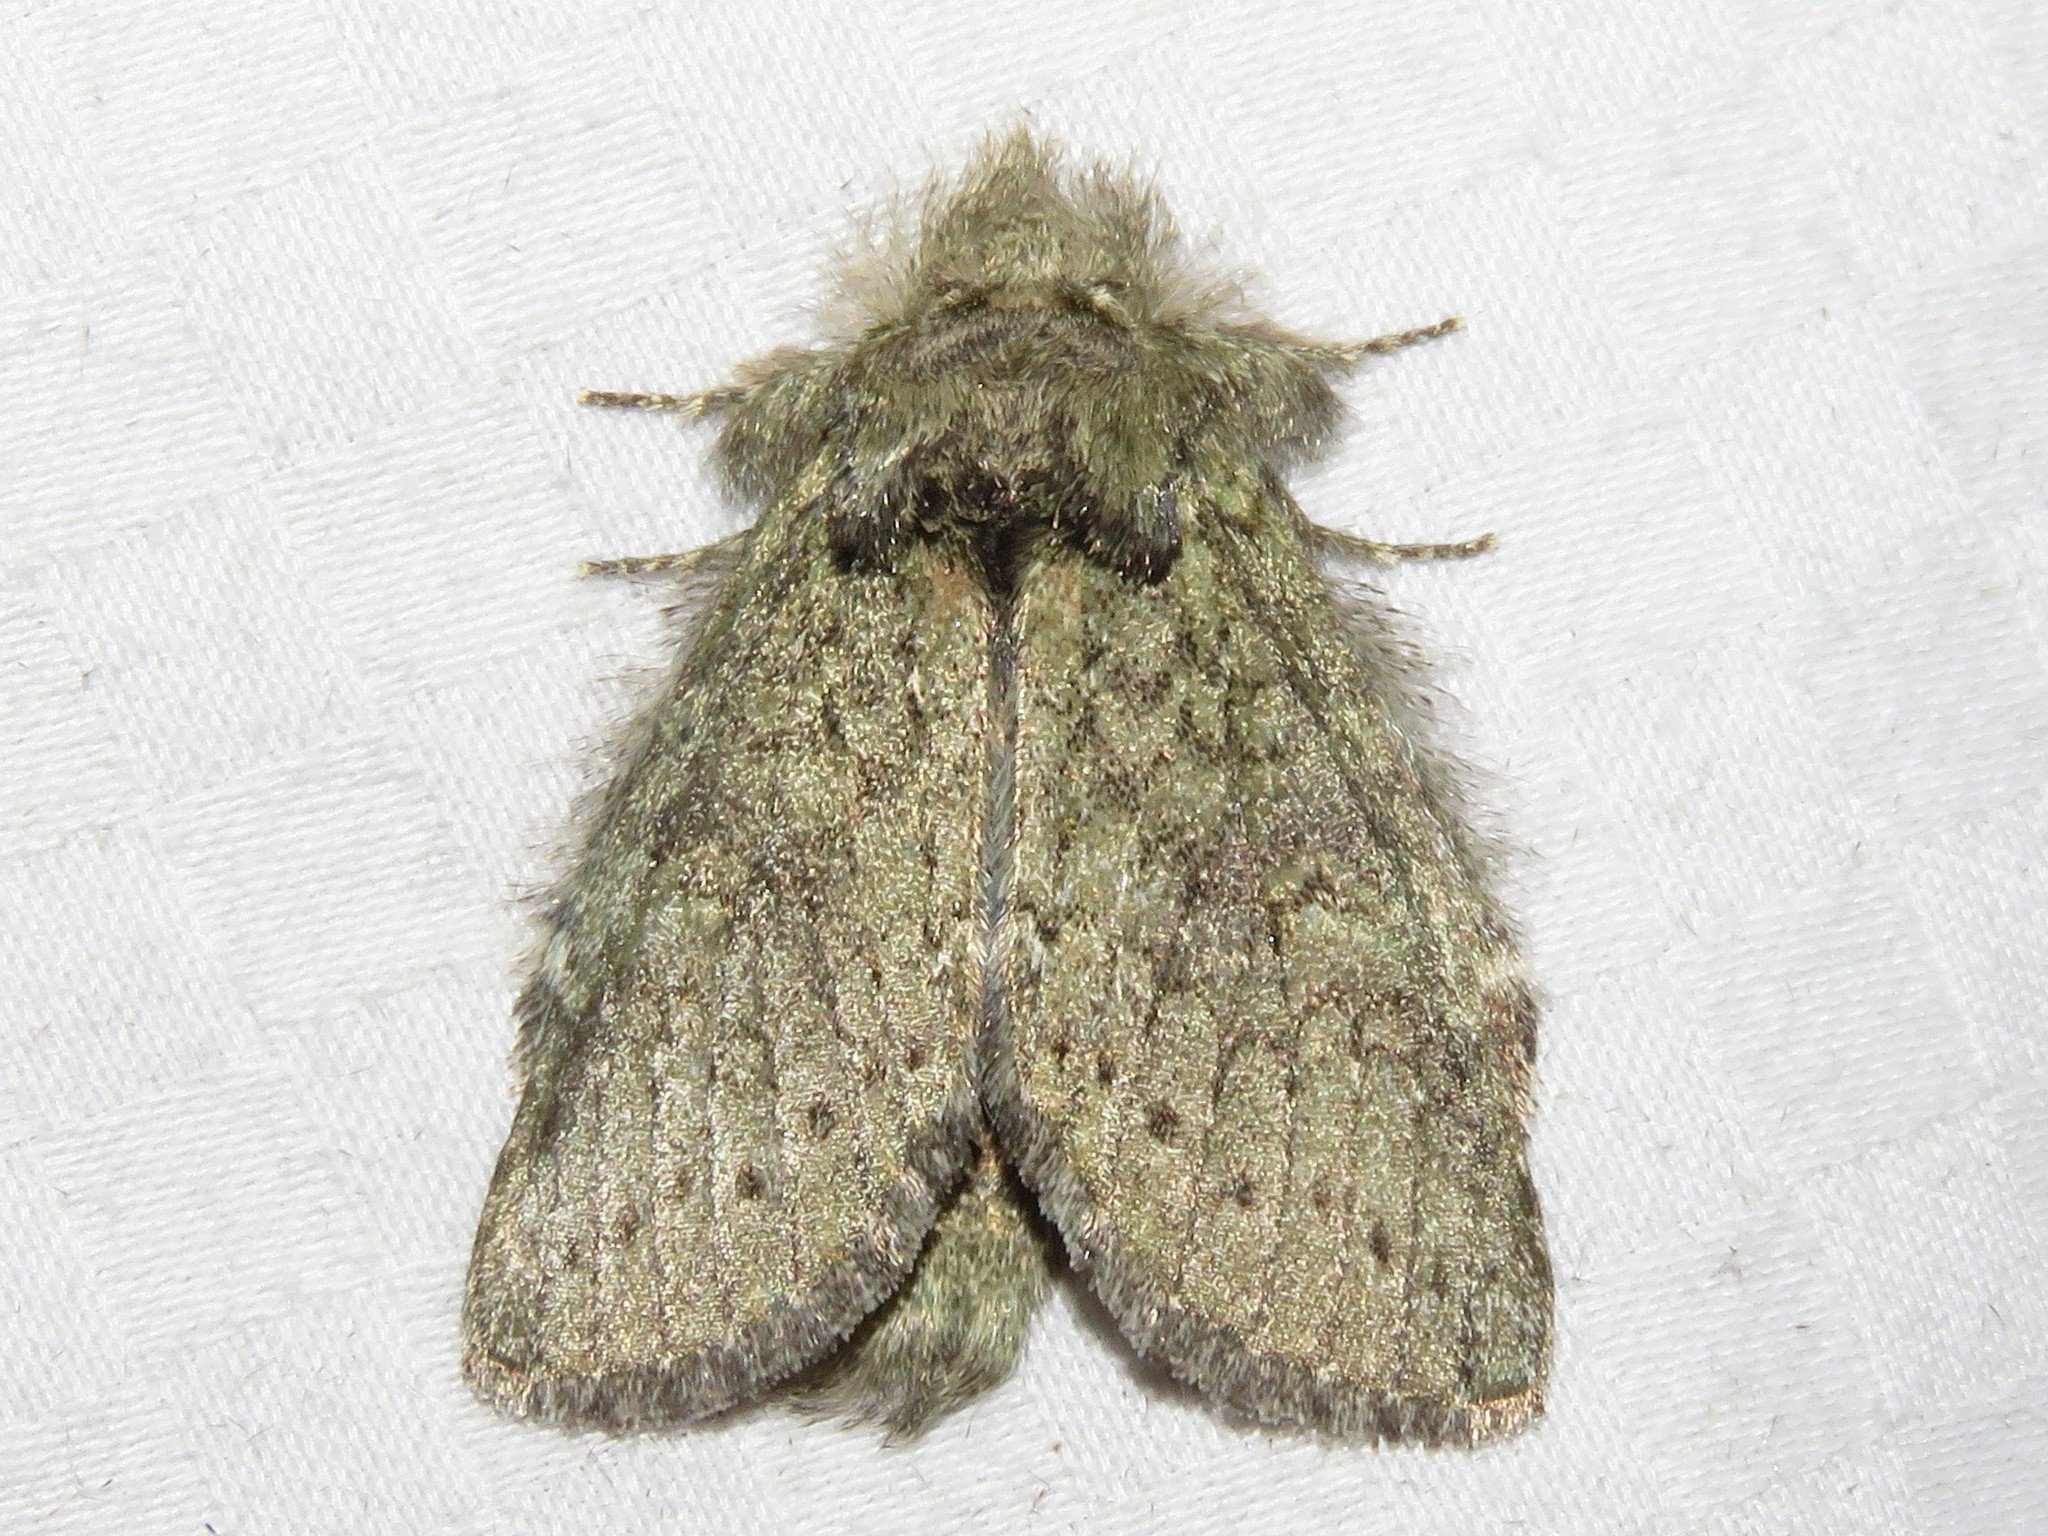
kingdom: Animalia
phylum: Arthropoda
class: Insecta
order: Lepidoptera
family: Notodontidae
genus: Disphragis
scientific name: Disphragis Cecrita guttivitta
